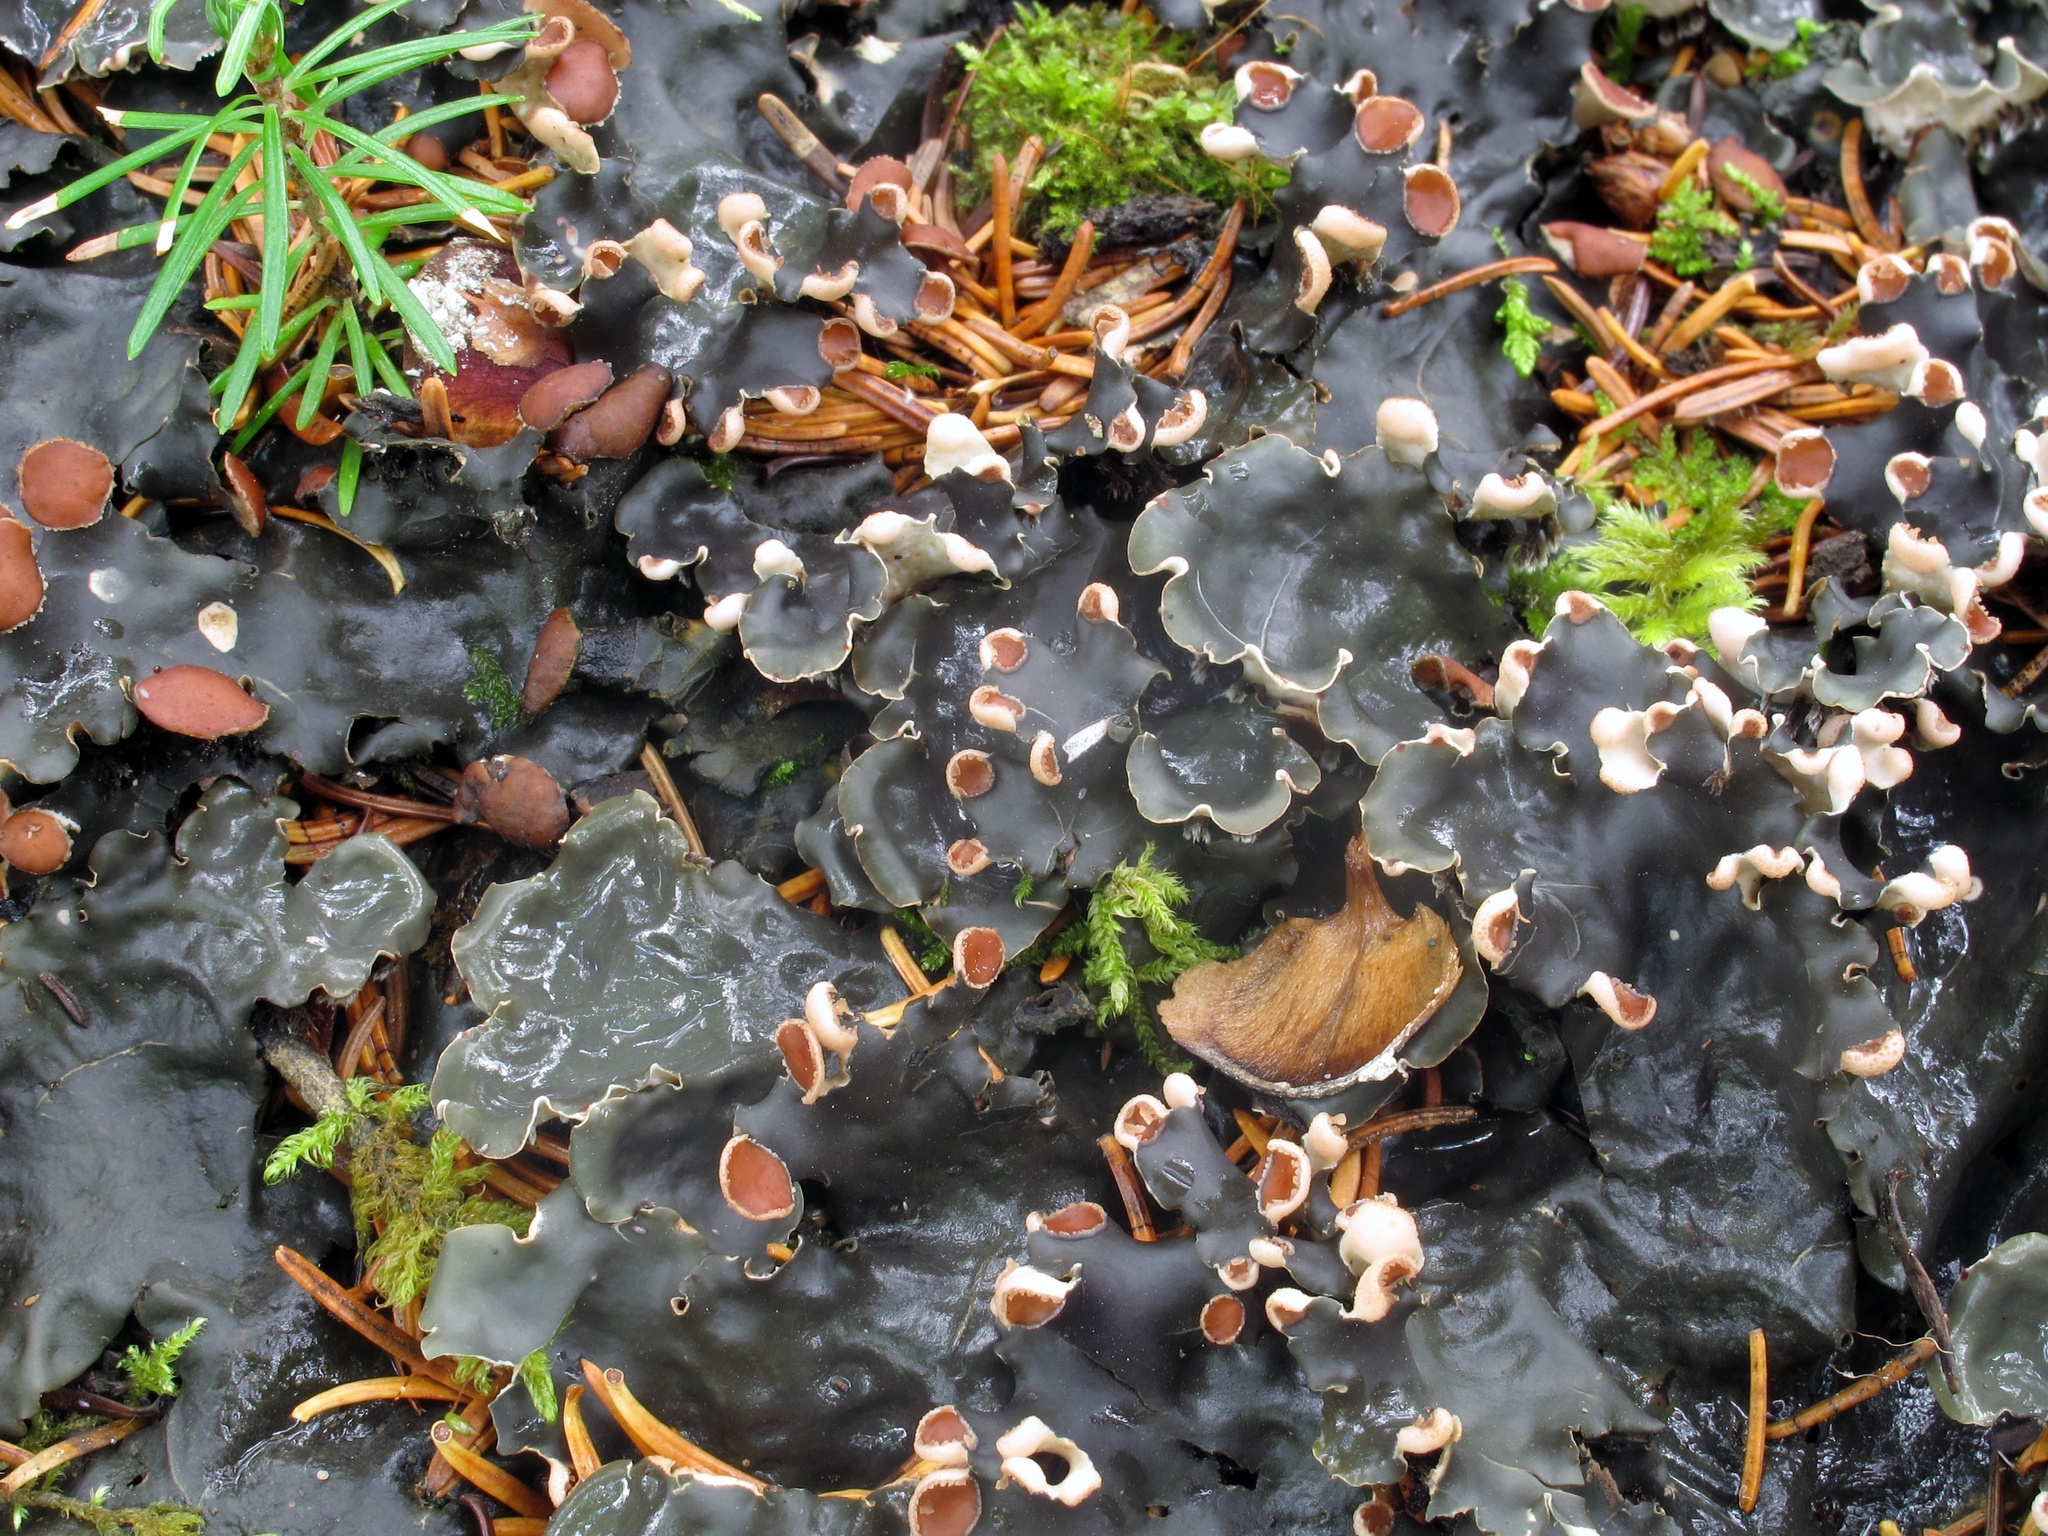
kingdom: Fungi
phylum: Ascomycota
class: Lecanoromycetes
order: Peltigerales
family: Peltigeraceae
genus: Peltigera
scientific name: Peltigera horizontalis
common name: Flat fruited pelt
